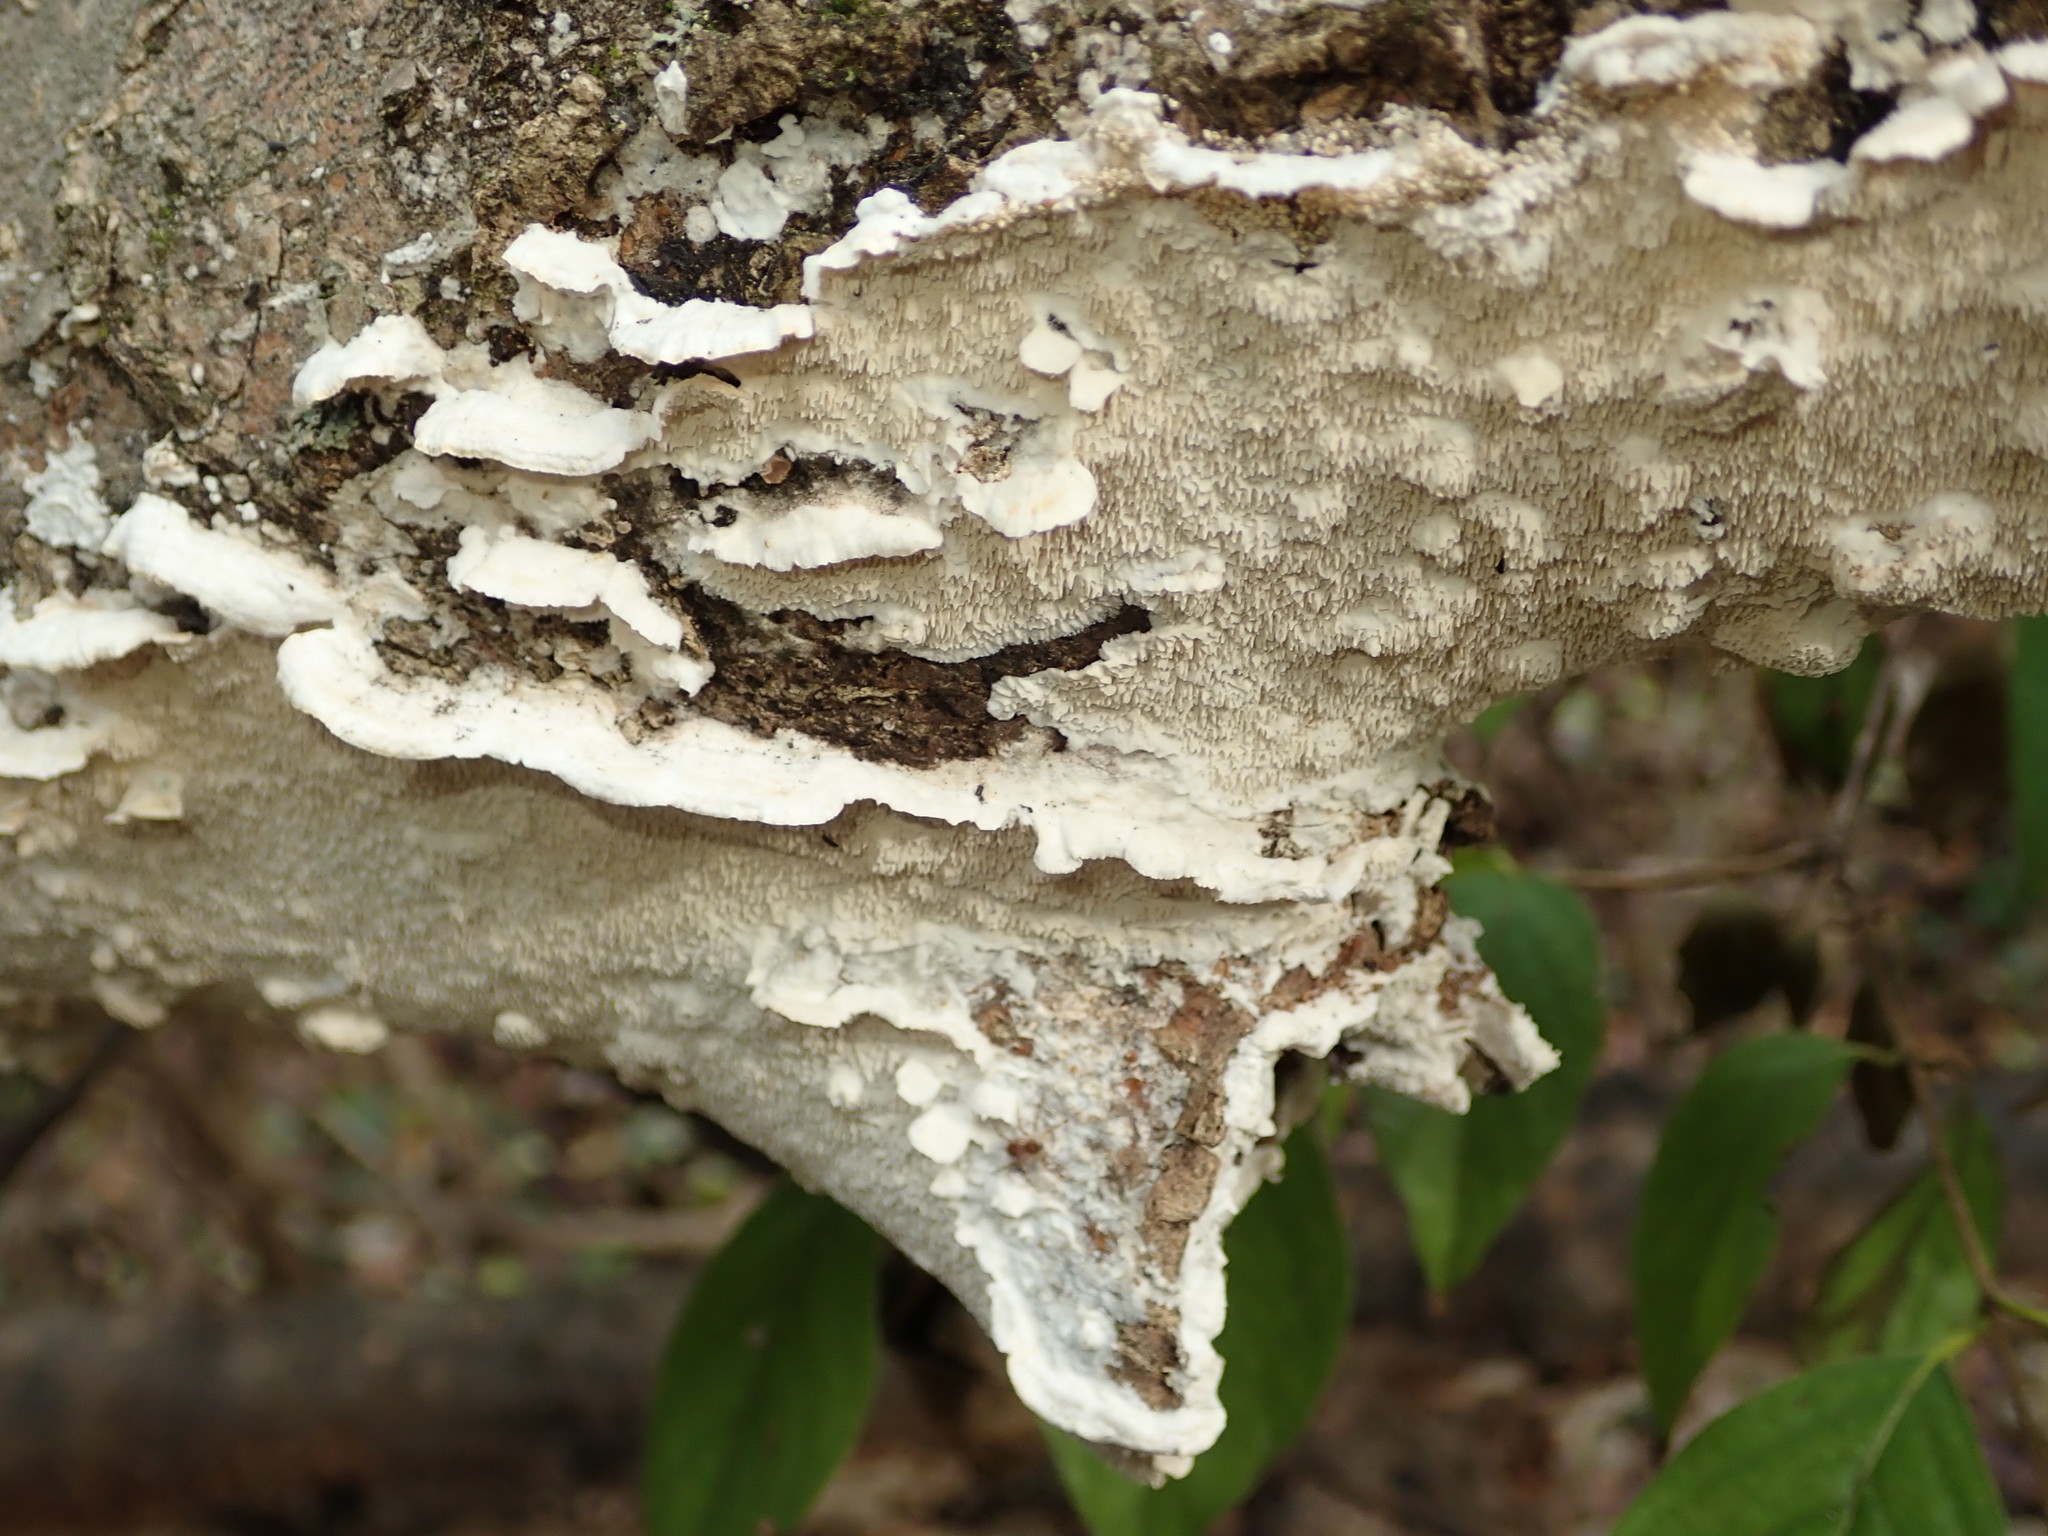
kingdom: Fungi
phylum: Basidiomycota
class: Agaricomycetes
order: Polyporales
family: Irpicaceae
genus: Irpex
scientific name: Irpex lacteus
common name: Milk-white toothed polypore
